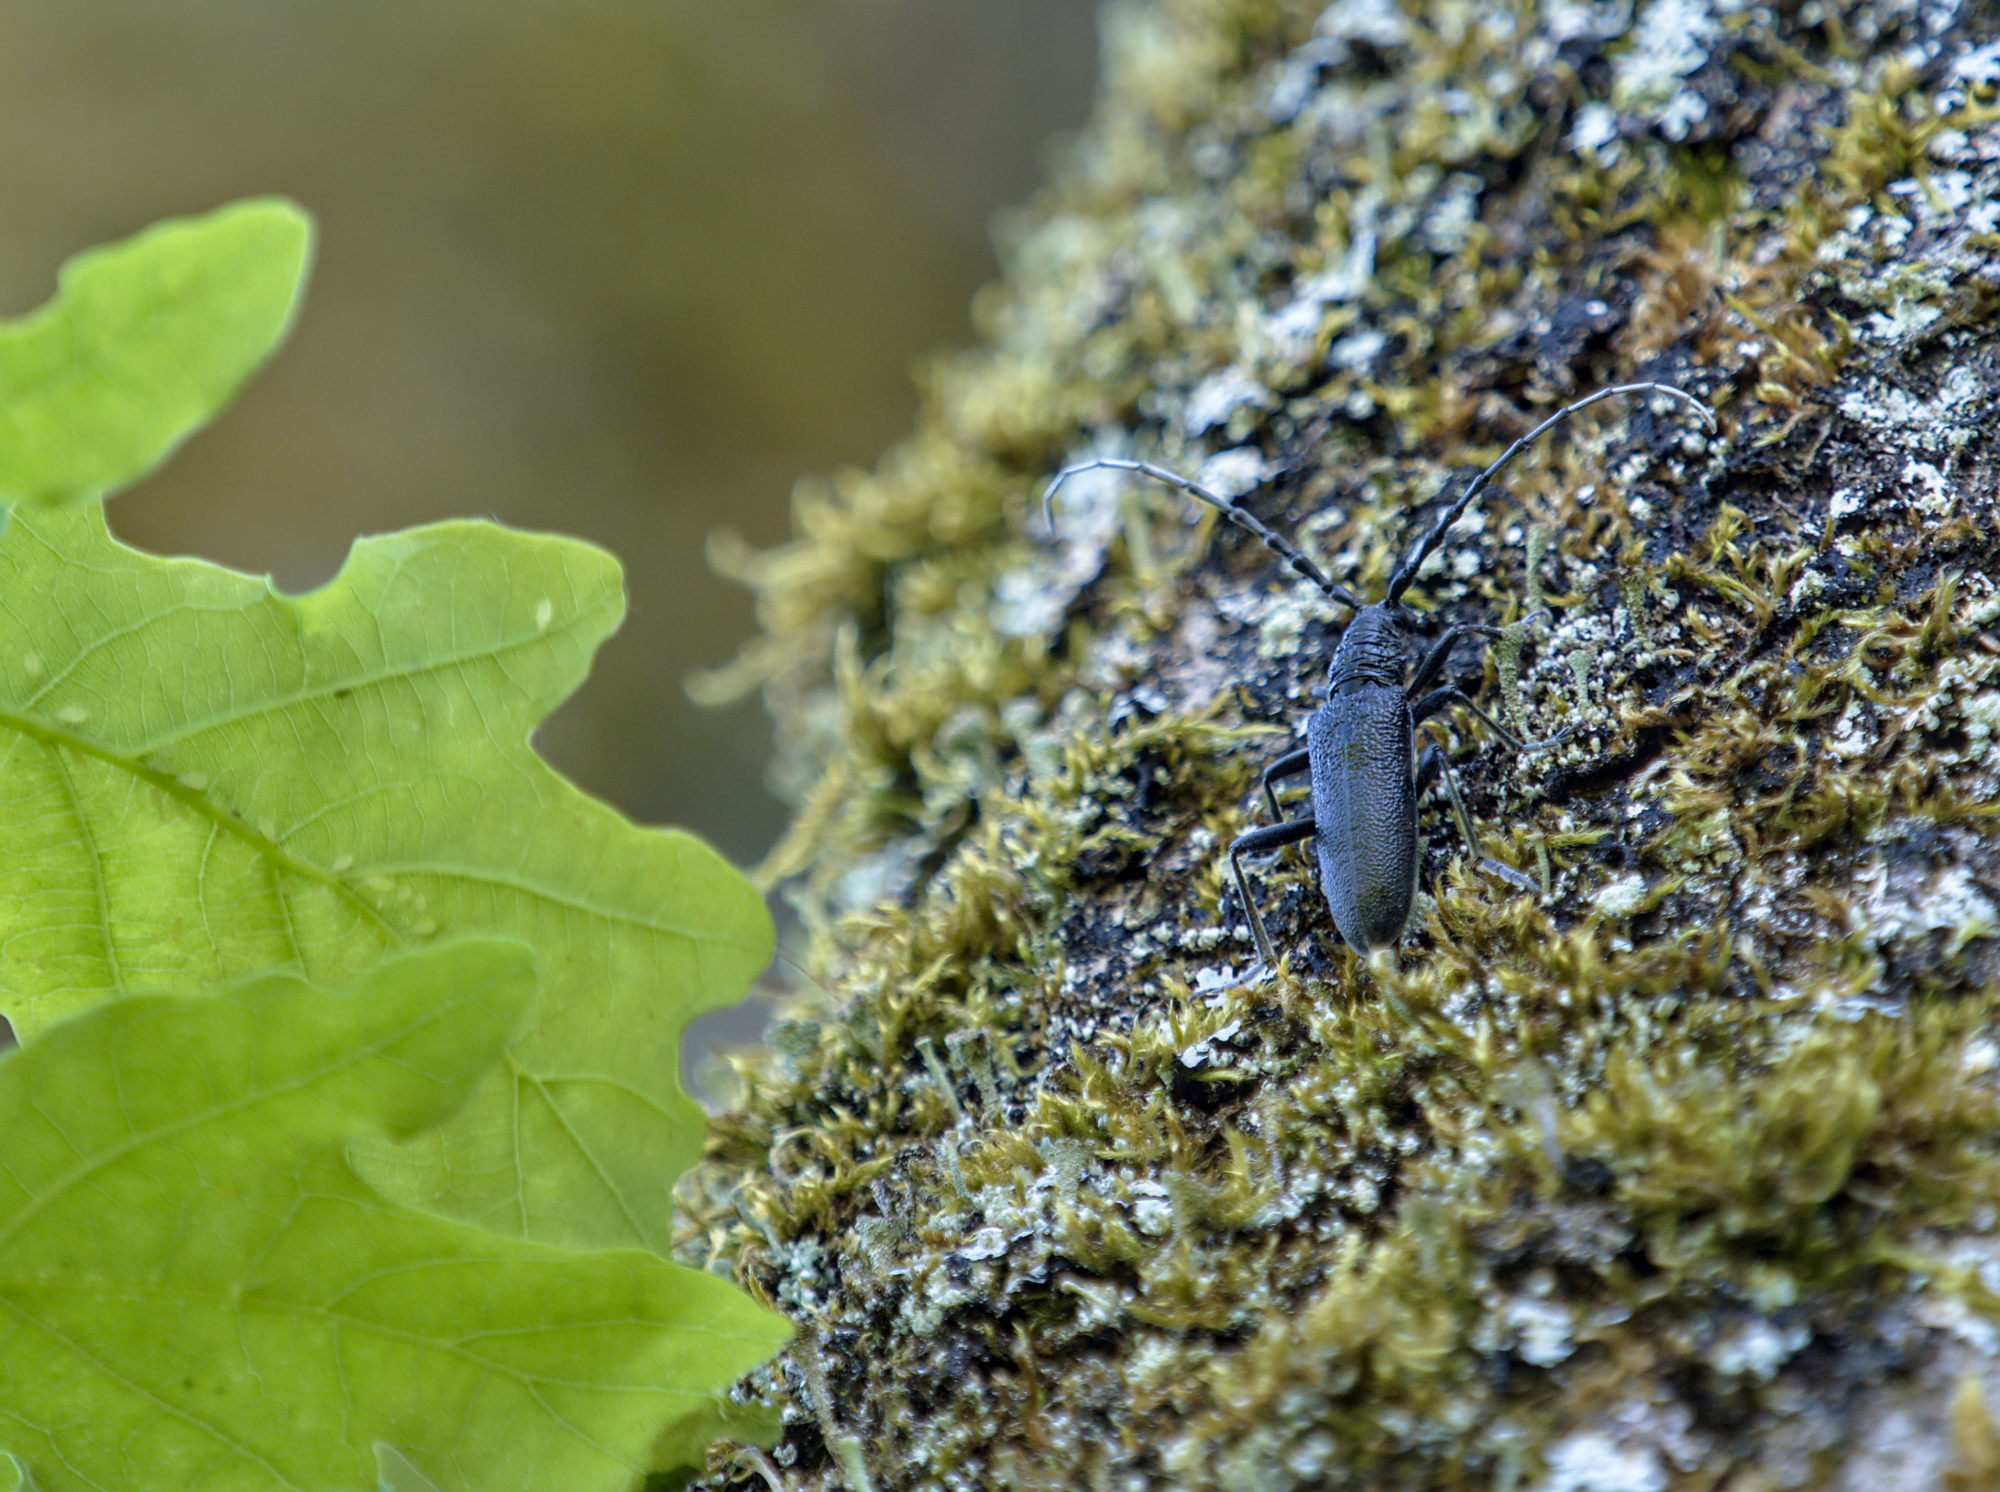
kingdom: Animalia
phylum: Arthropoda
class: Insecta
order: Coleoptera
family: Cerambycidae
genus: Cerambyx
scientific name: Cerambyx scopolii
